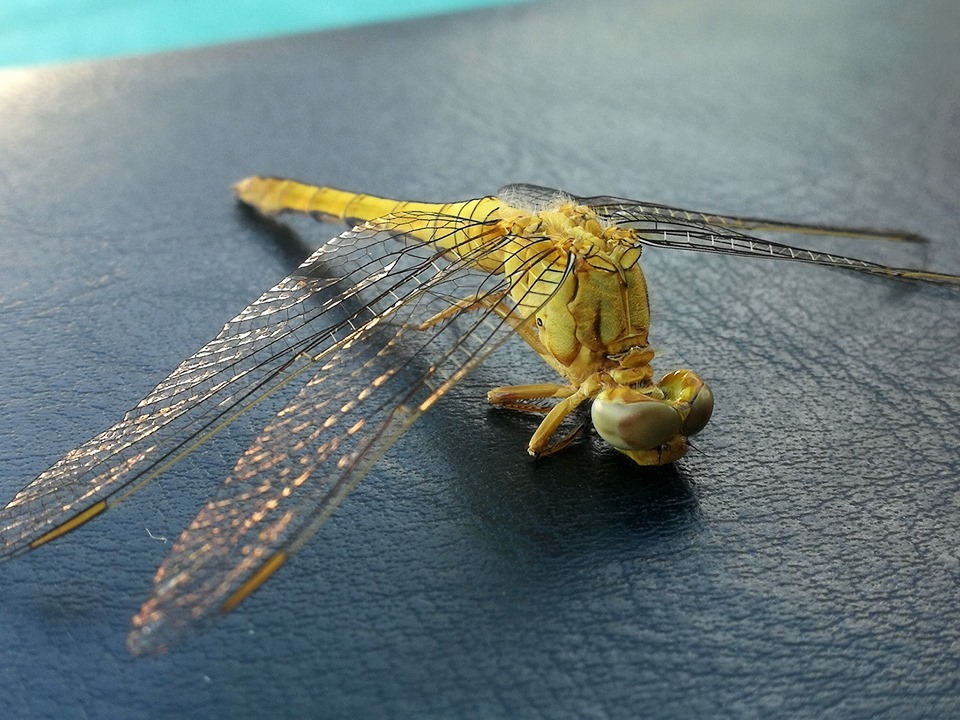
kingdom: Animalia
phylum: Arthropoda
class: Insecta
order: Odonata
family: Libellulidae
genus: Orthetrum
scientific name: Orthetrum coerulescens
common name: Keeled skimmer
